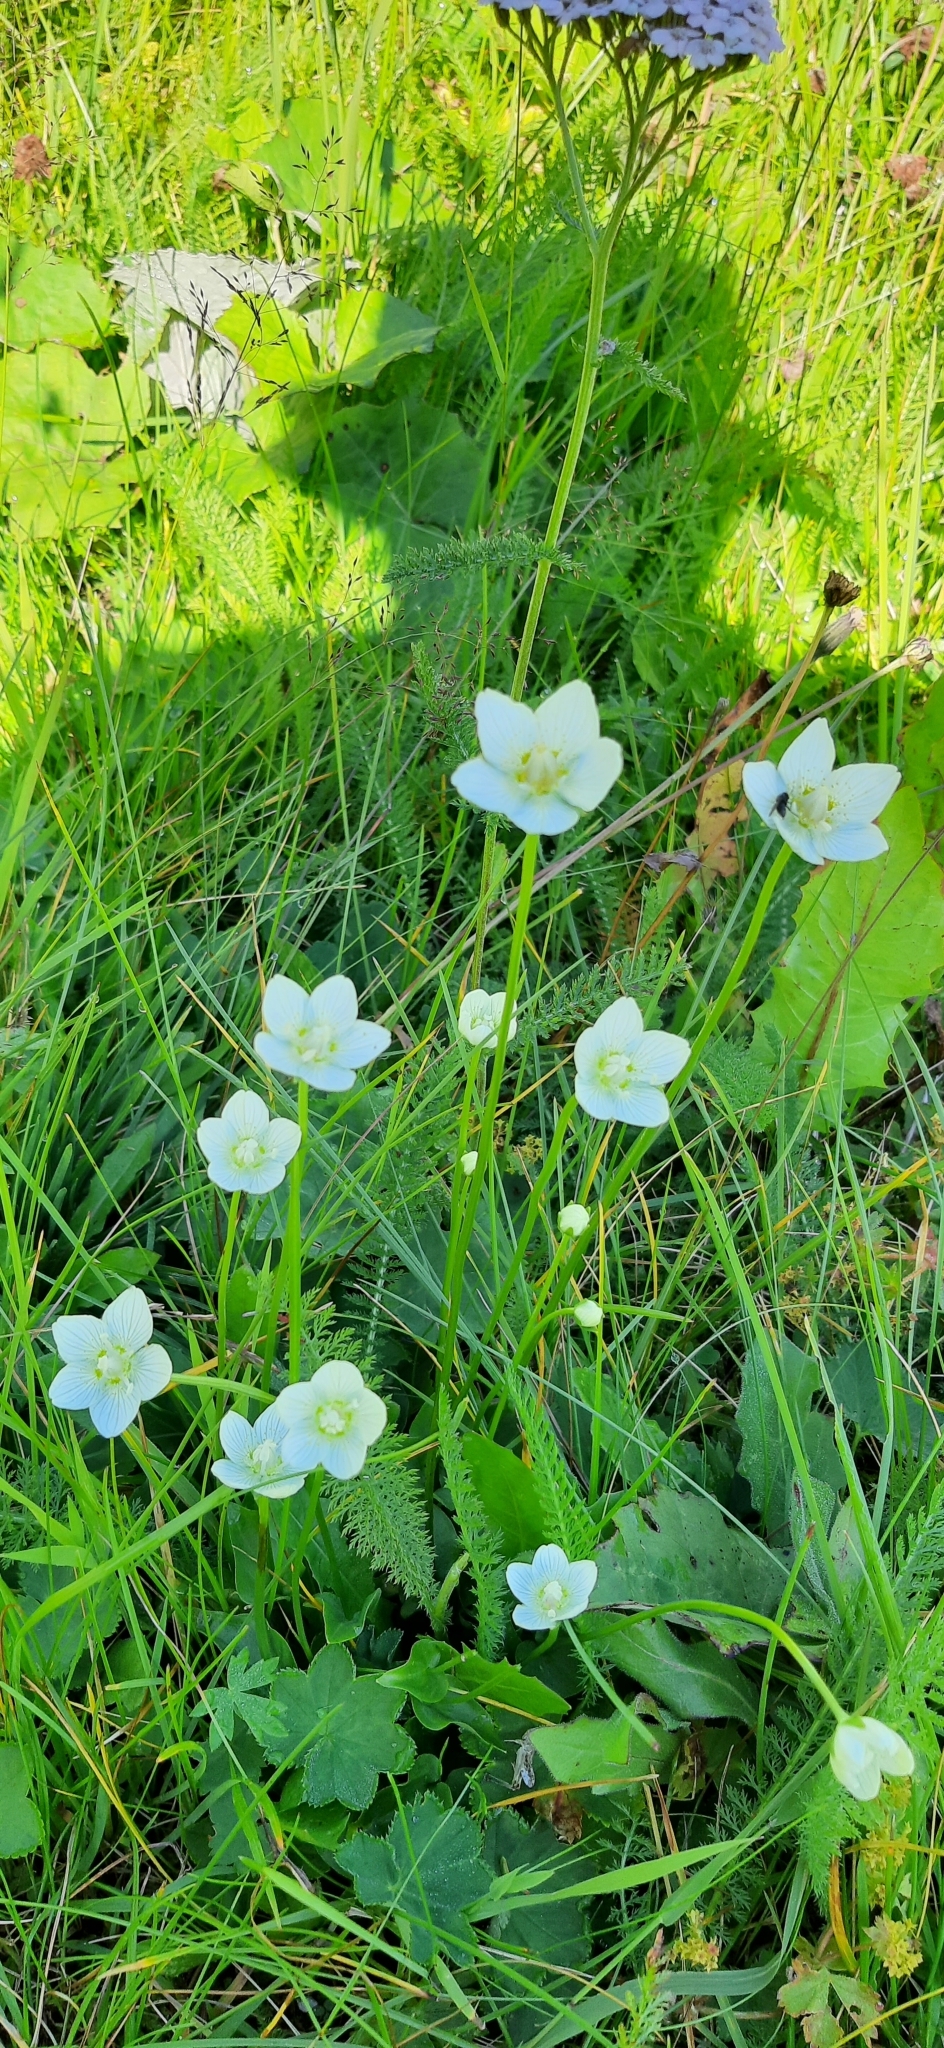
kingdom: Plantae
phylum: Tracheophyta
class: Magnoliopsida
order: Celastrales
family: Parnassiaceae
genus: Parnassia
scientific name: Parnassia palustris
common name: Grass-of-parnassus
